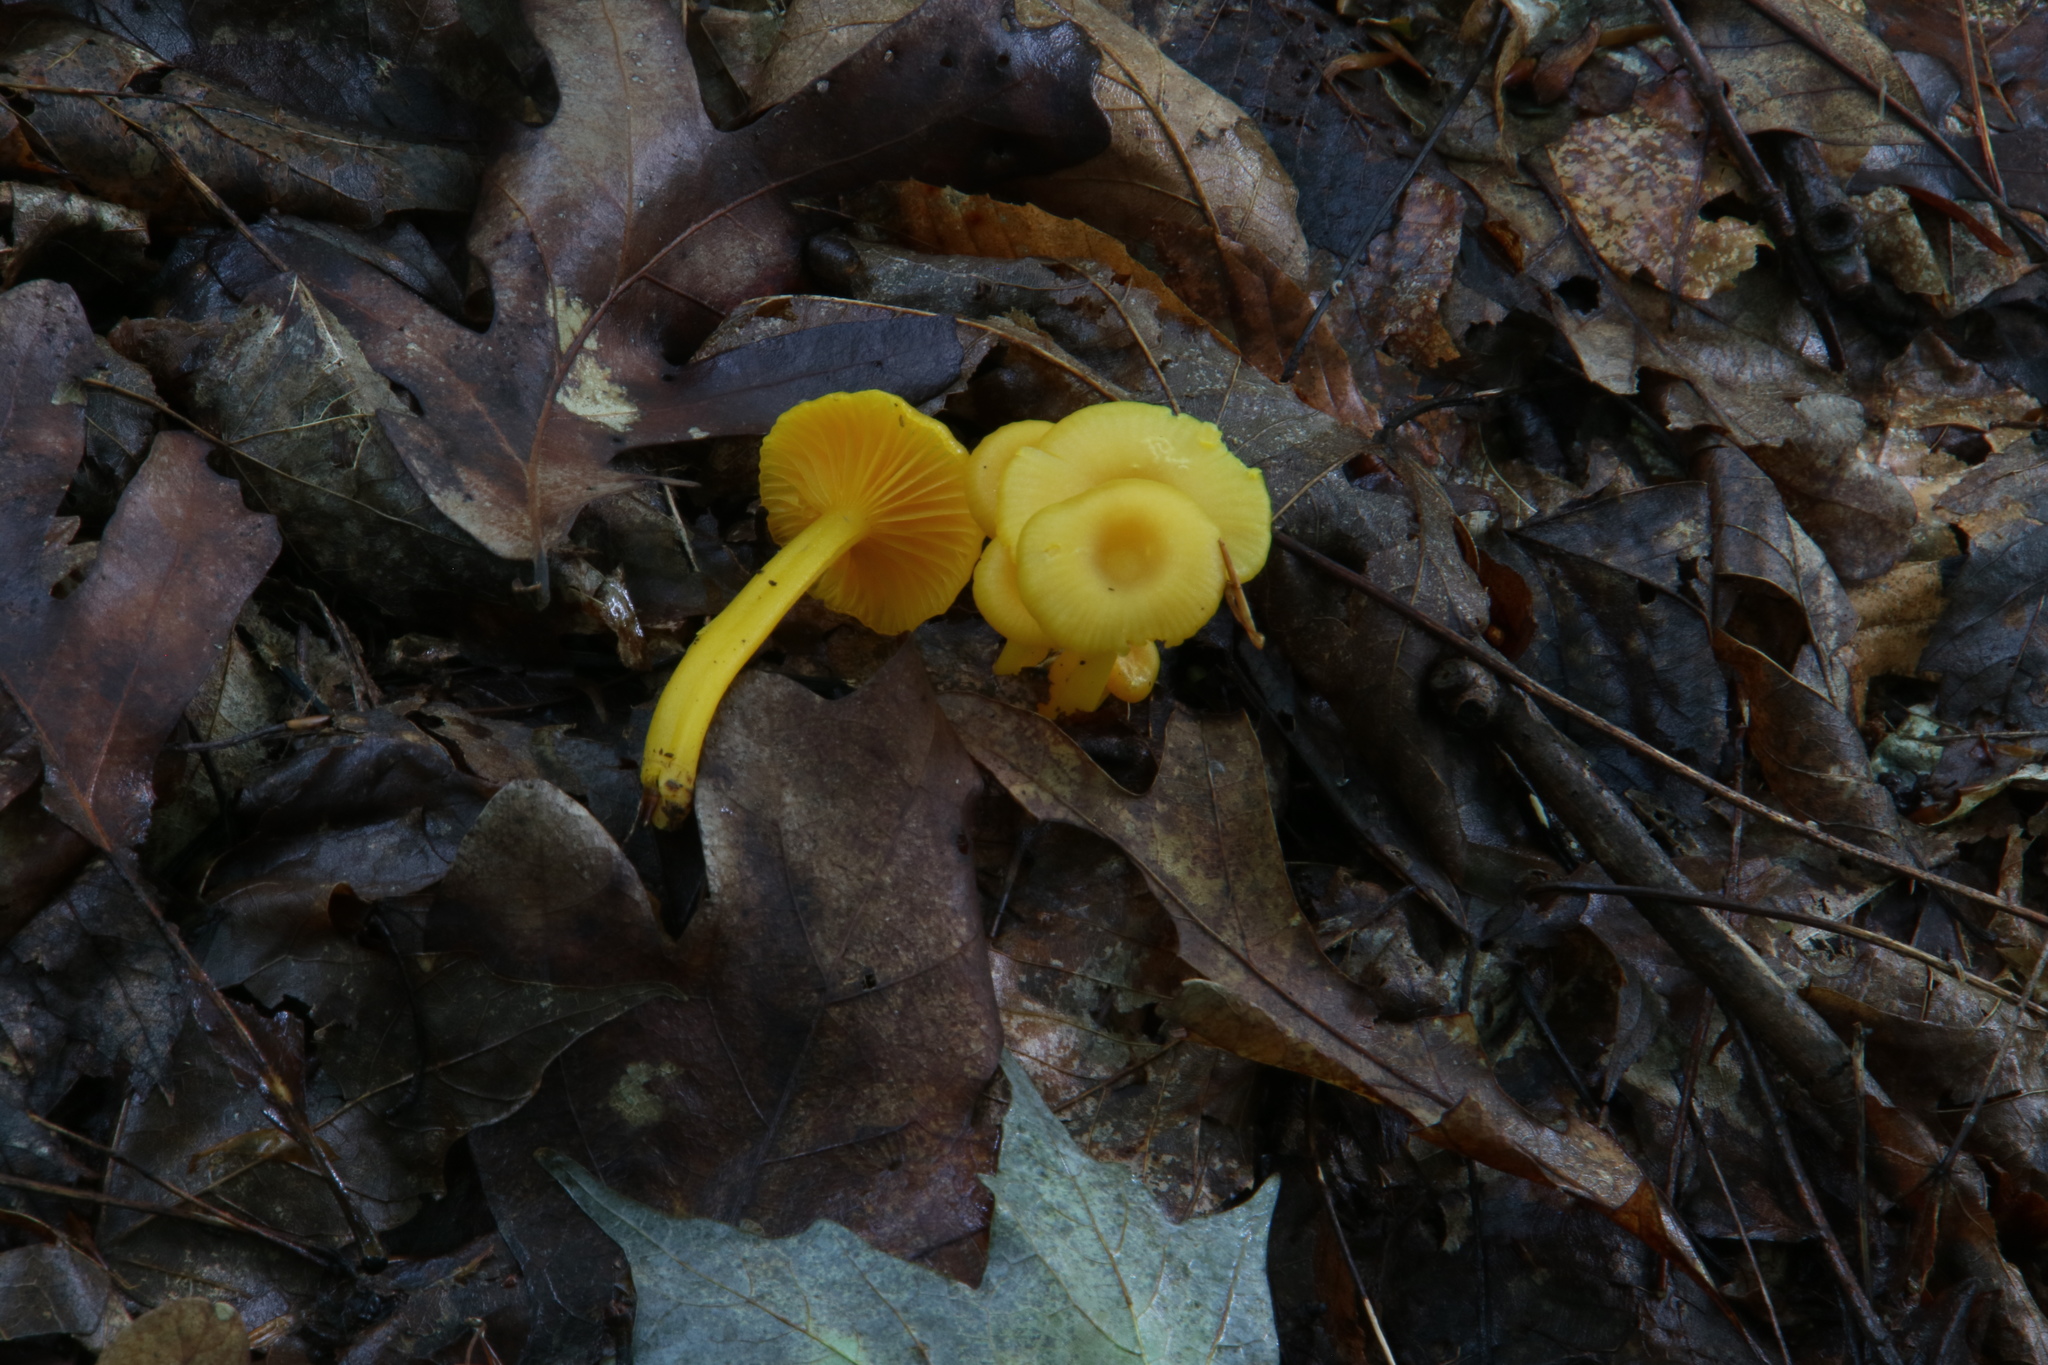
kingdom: Fungi
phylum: Basidiomycota
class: Agaricomycetes
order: Agaricales
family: Hygrophoraceae
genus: Gloioxanthomyces
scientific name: Gloioxanthomyces nitidus
